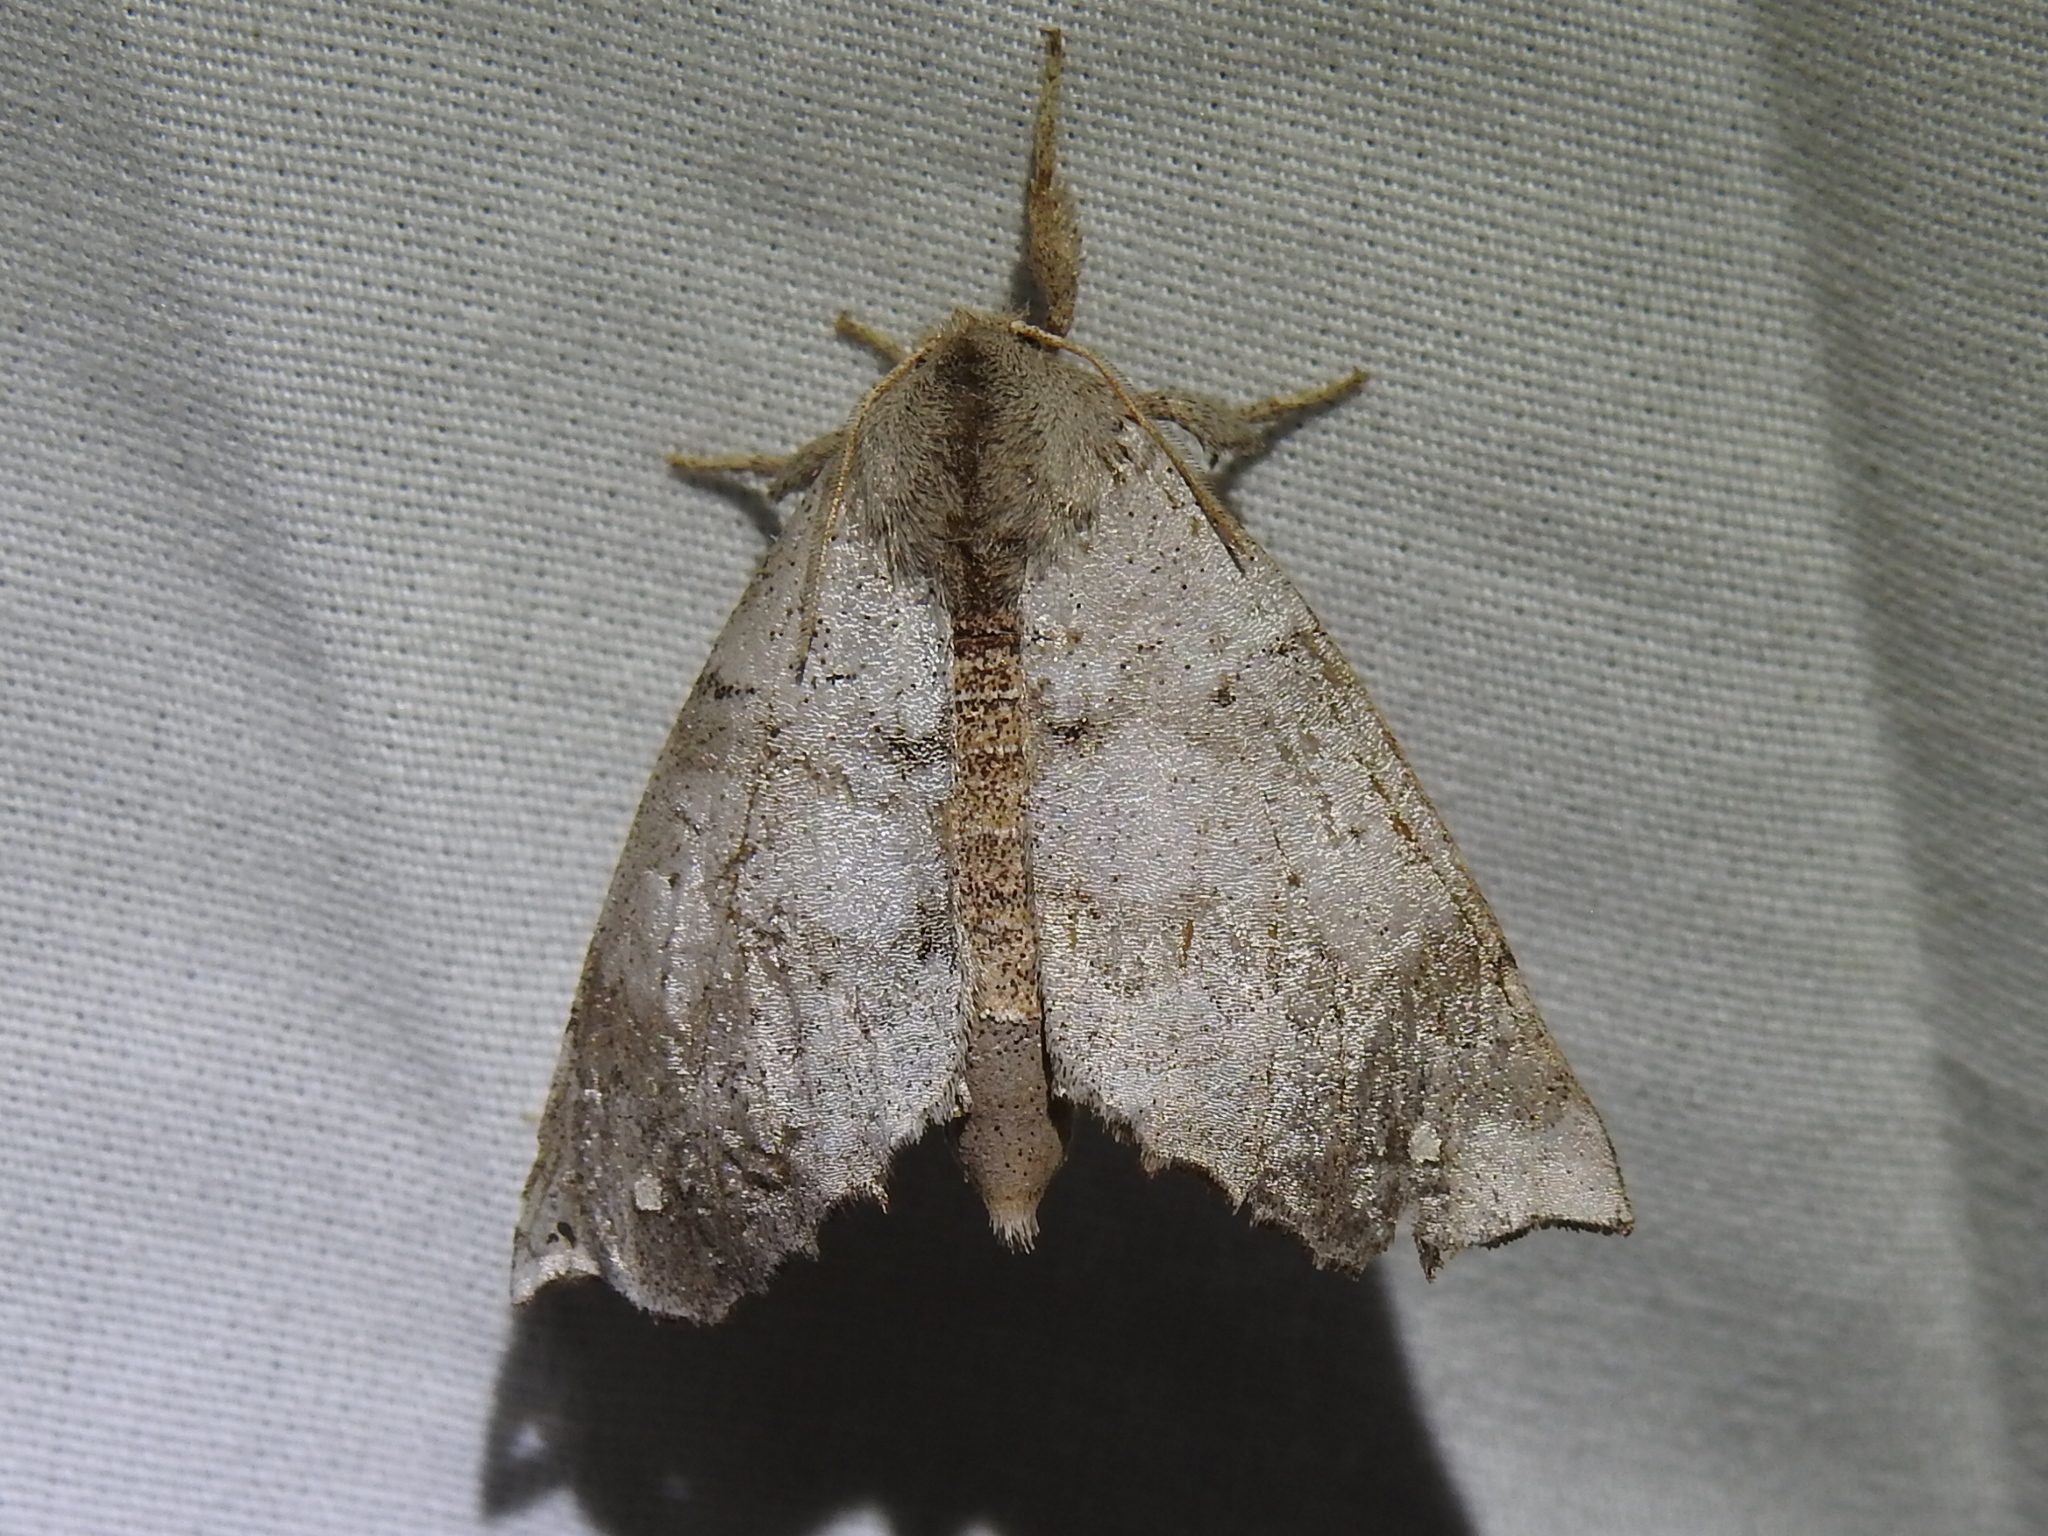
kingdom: Animalia
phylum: Arthropoda
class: Insecta
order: Lepidoptera
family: Apatelodidae
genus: Olceclostera
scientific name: Olceclostera angelica
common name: Angel moth
